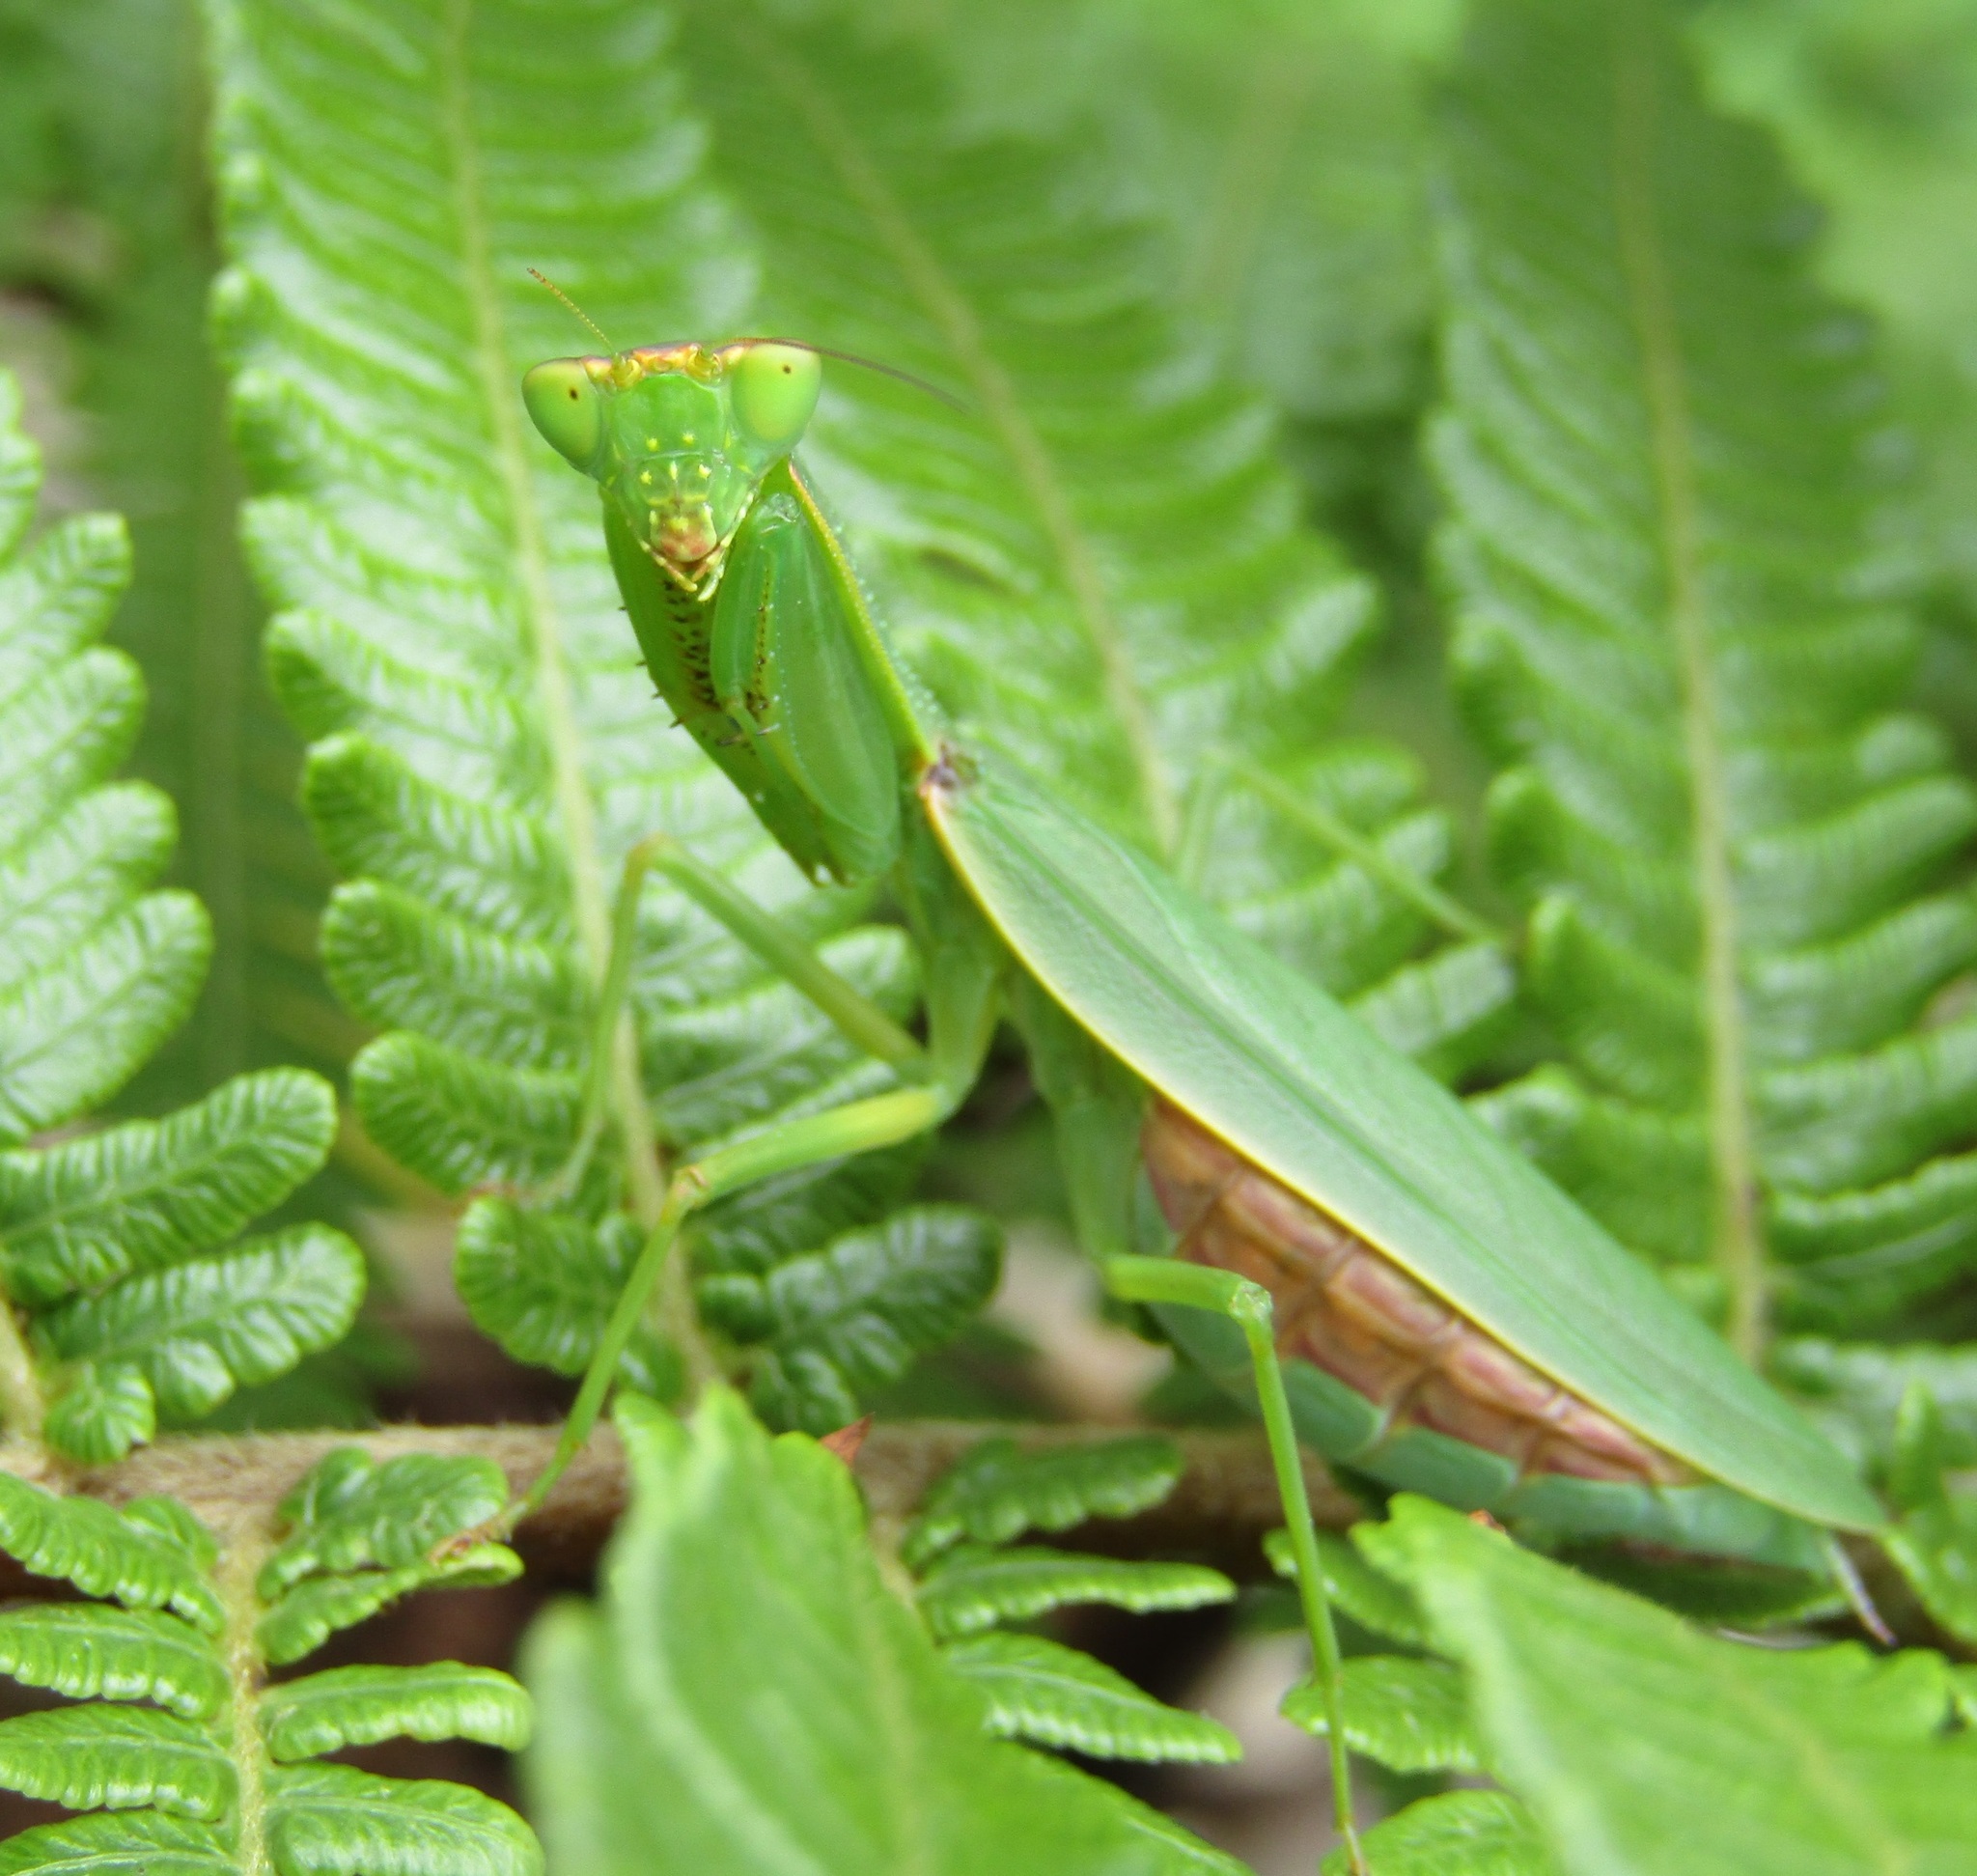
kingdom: Animalia
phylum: Arthropoda
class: Insecta
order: Mantodea
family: Mantidae
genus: Orthodera
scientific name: Orthodera novaezealandiae
